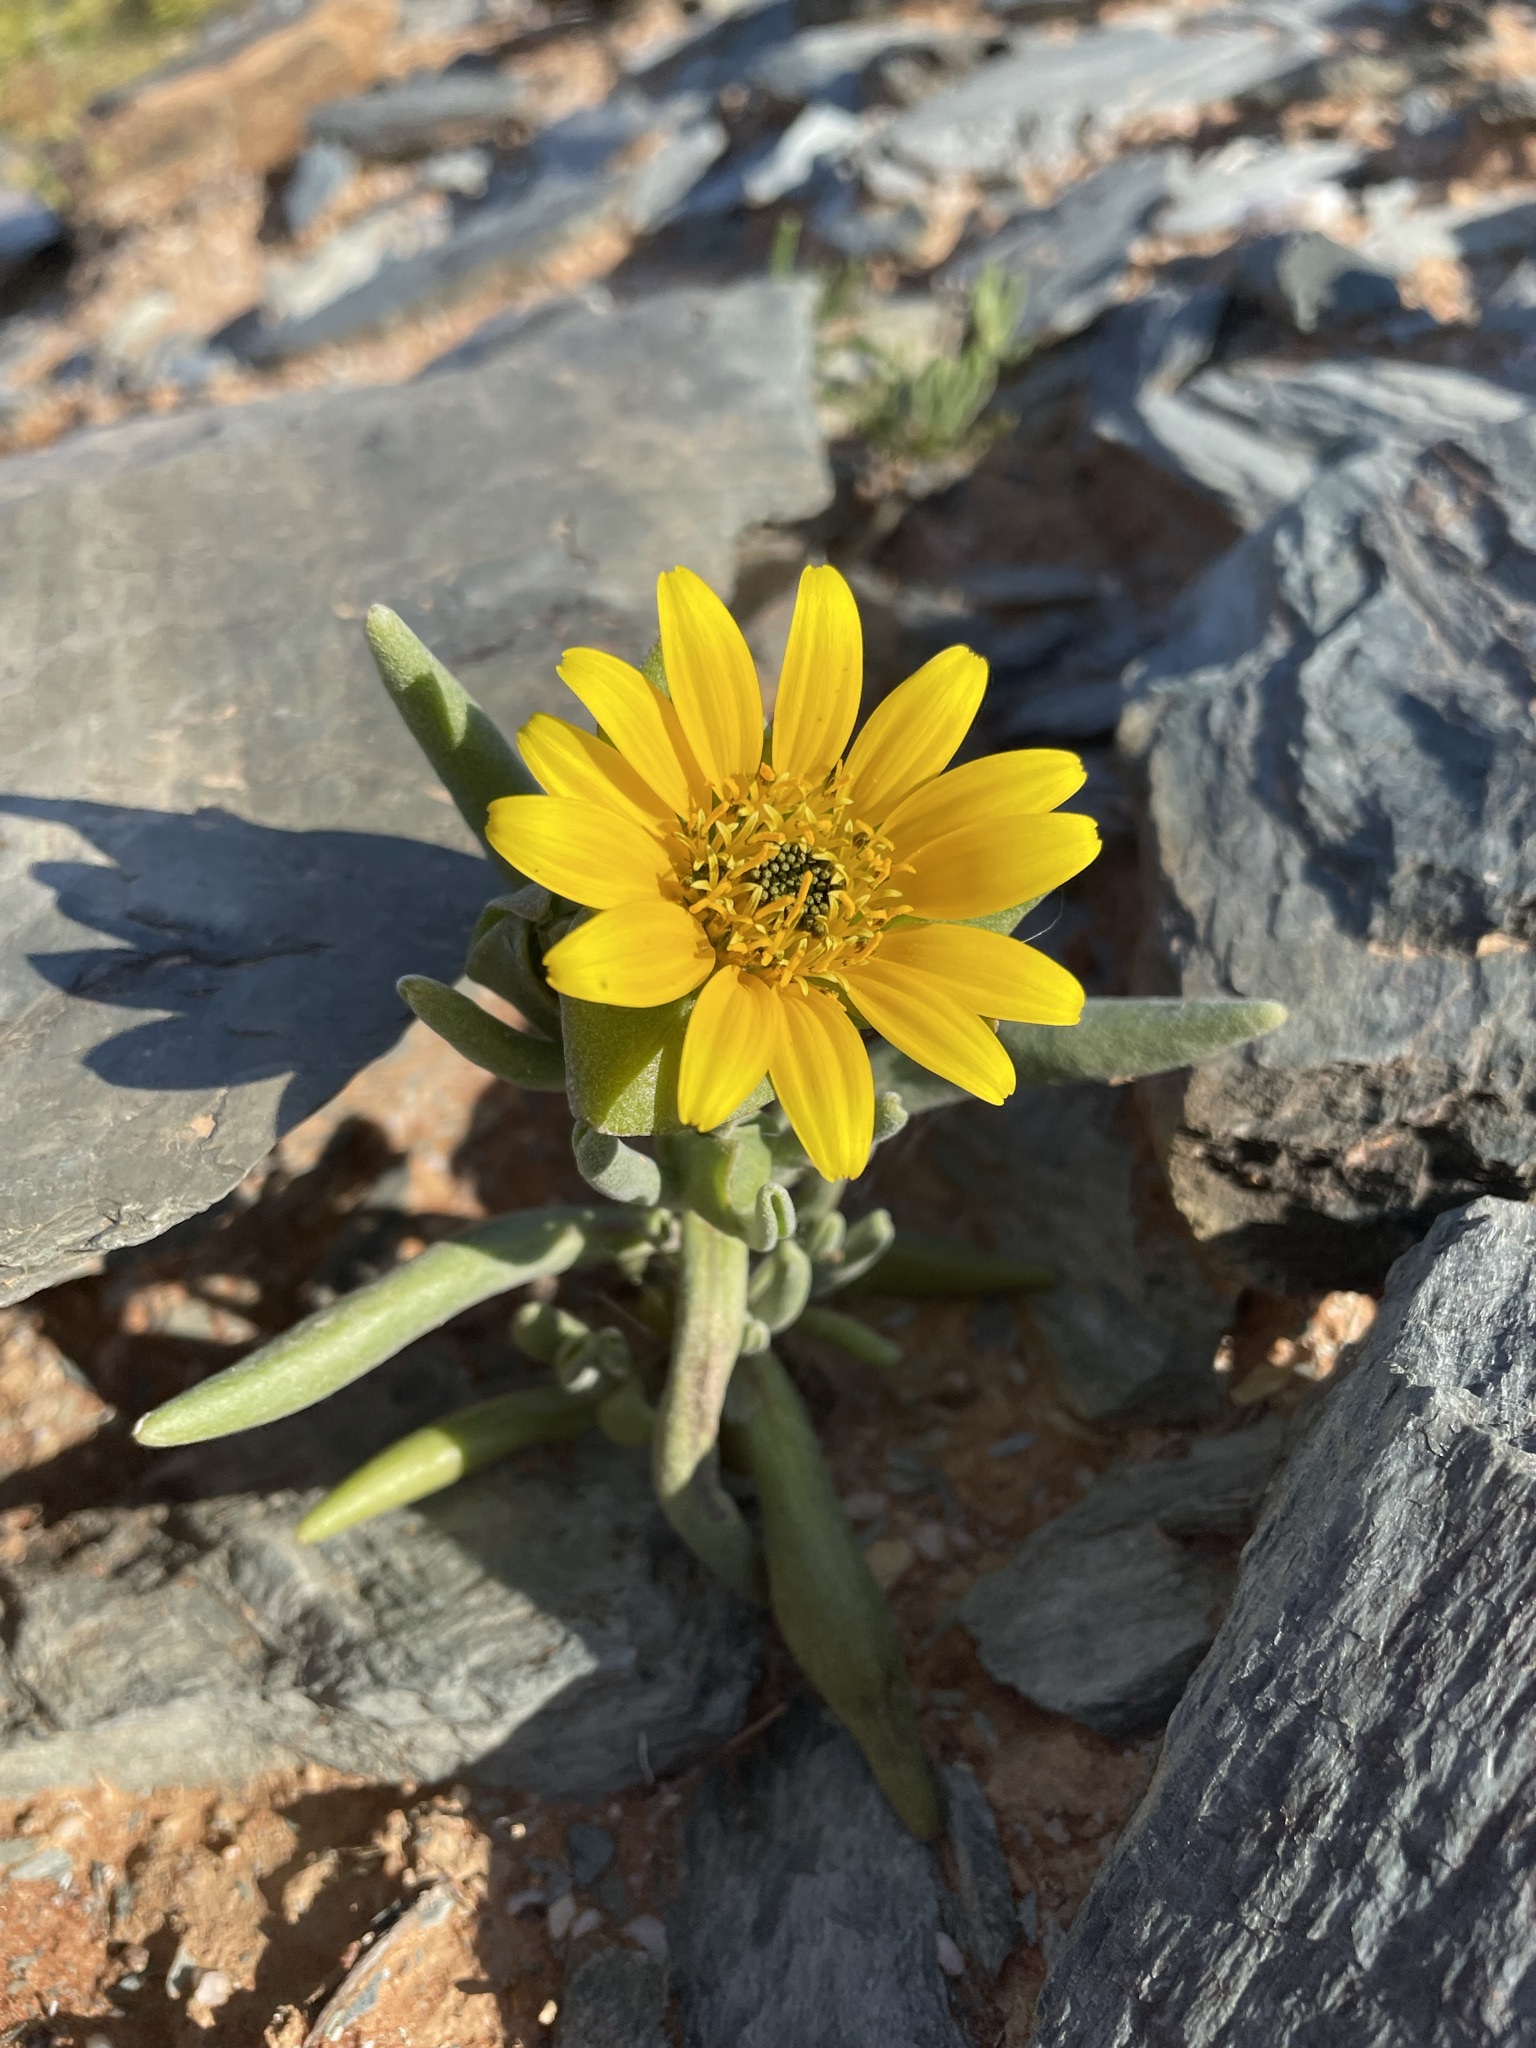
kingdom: Plantae
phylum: Tracheophyta
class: Magnoliopsida
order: Asterales
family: Asteraceae
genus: Didelta
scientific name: Didelta carnosa
